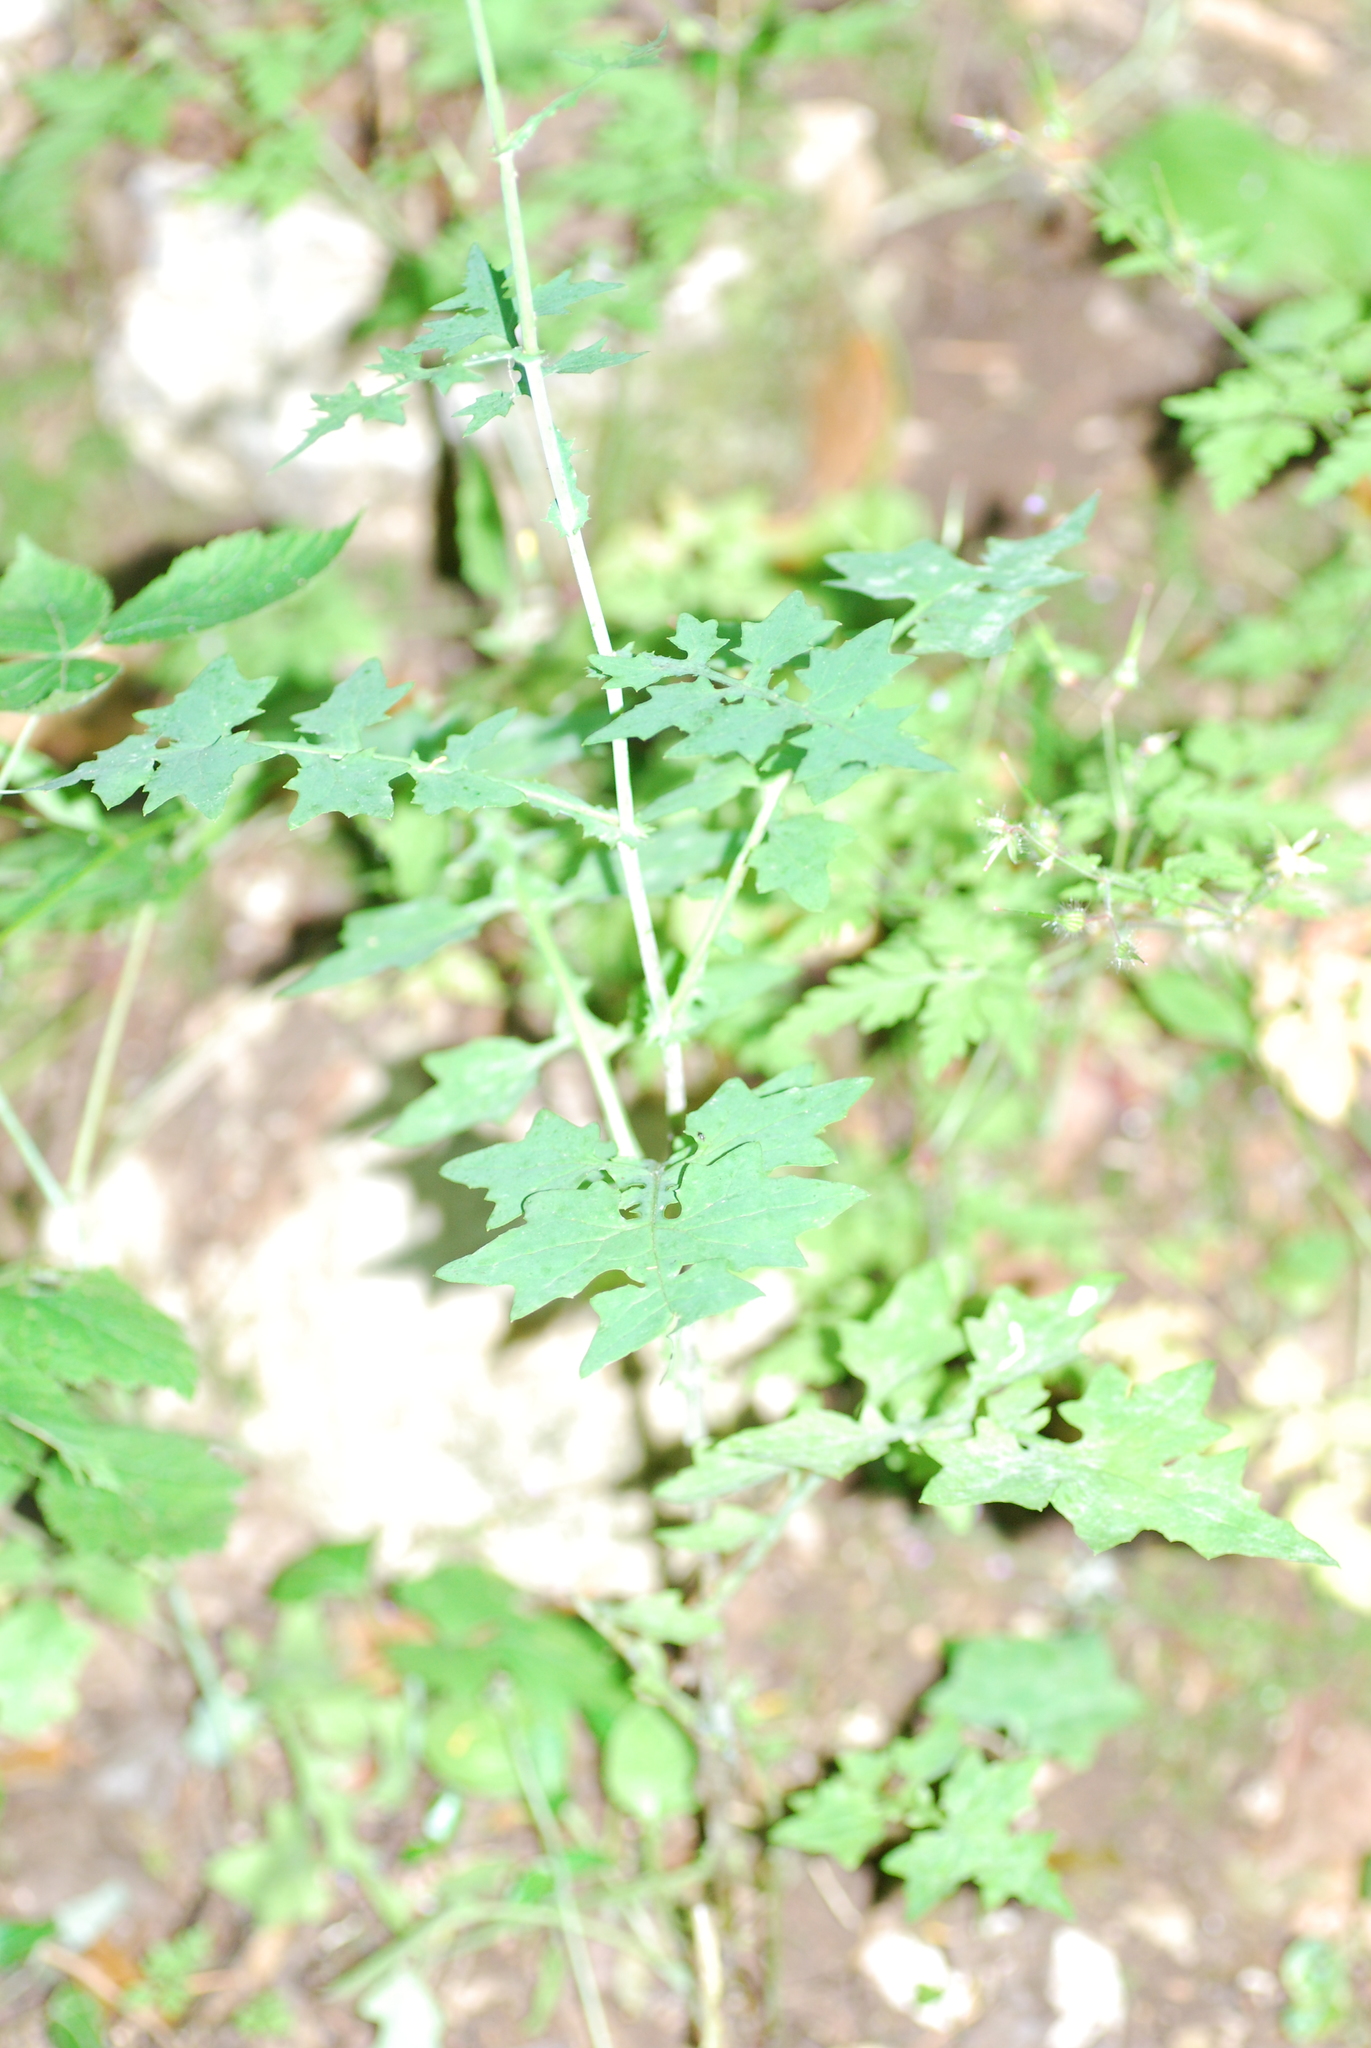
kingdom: Plantae
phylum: Tracheophyta
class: Magnoliopsida
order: Asterales
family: Asteraceae
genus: Mycelis
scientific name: Mycelis muralis
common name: Wall lettuce
